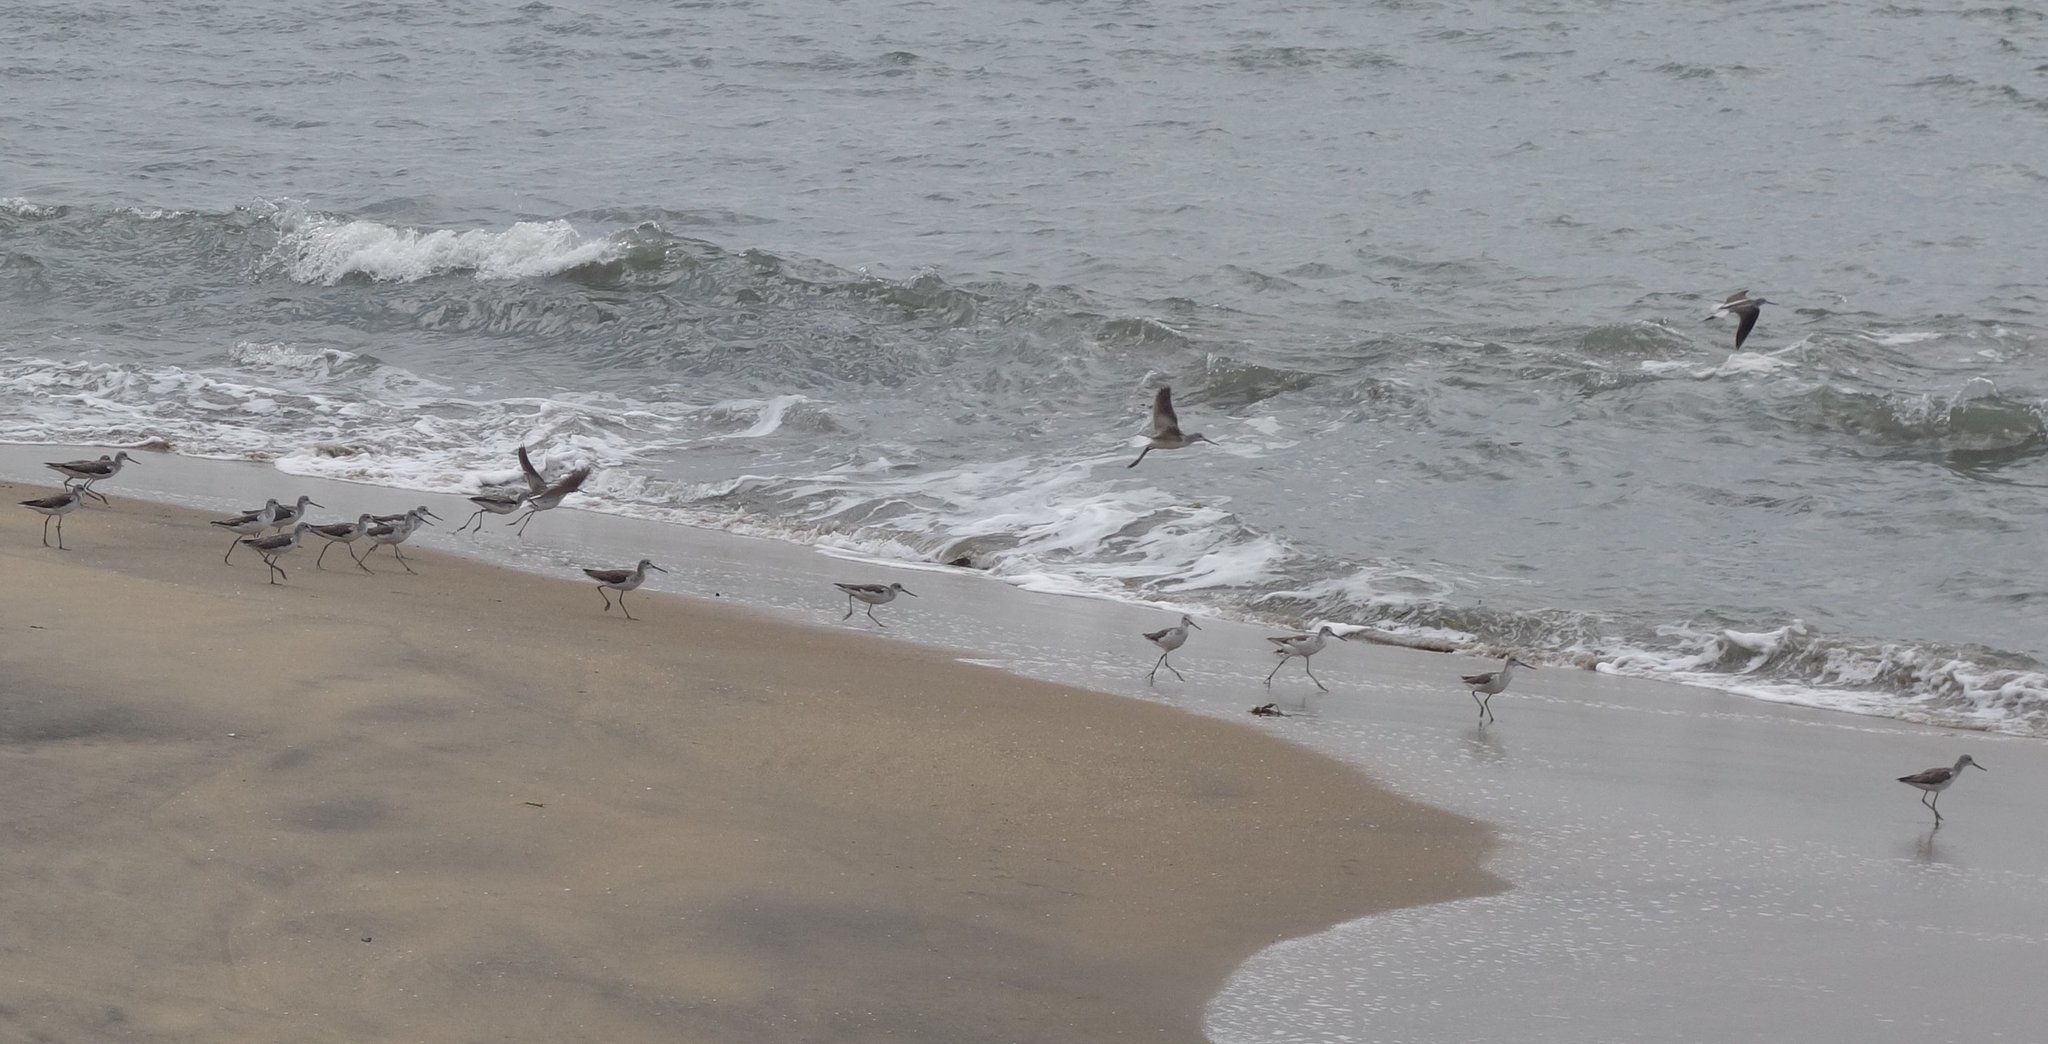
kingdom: Animalia
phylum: Chordata
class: Aves
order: Charadriiformes
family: Scolopacidae
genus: Tringa
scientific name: Tringa nebularia
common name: Common greenshank
